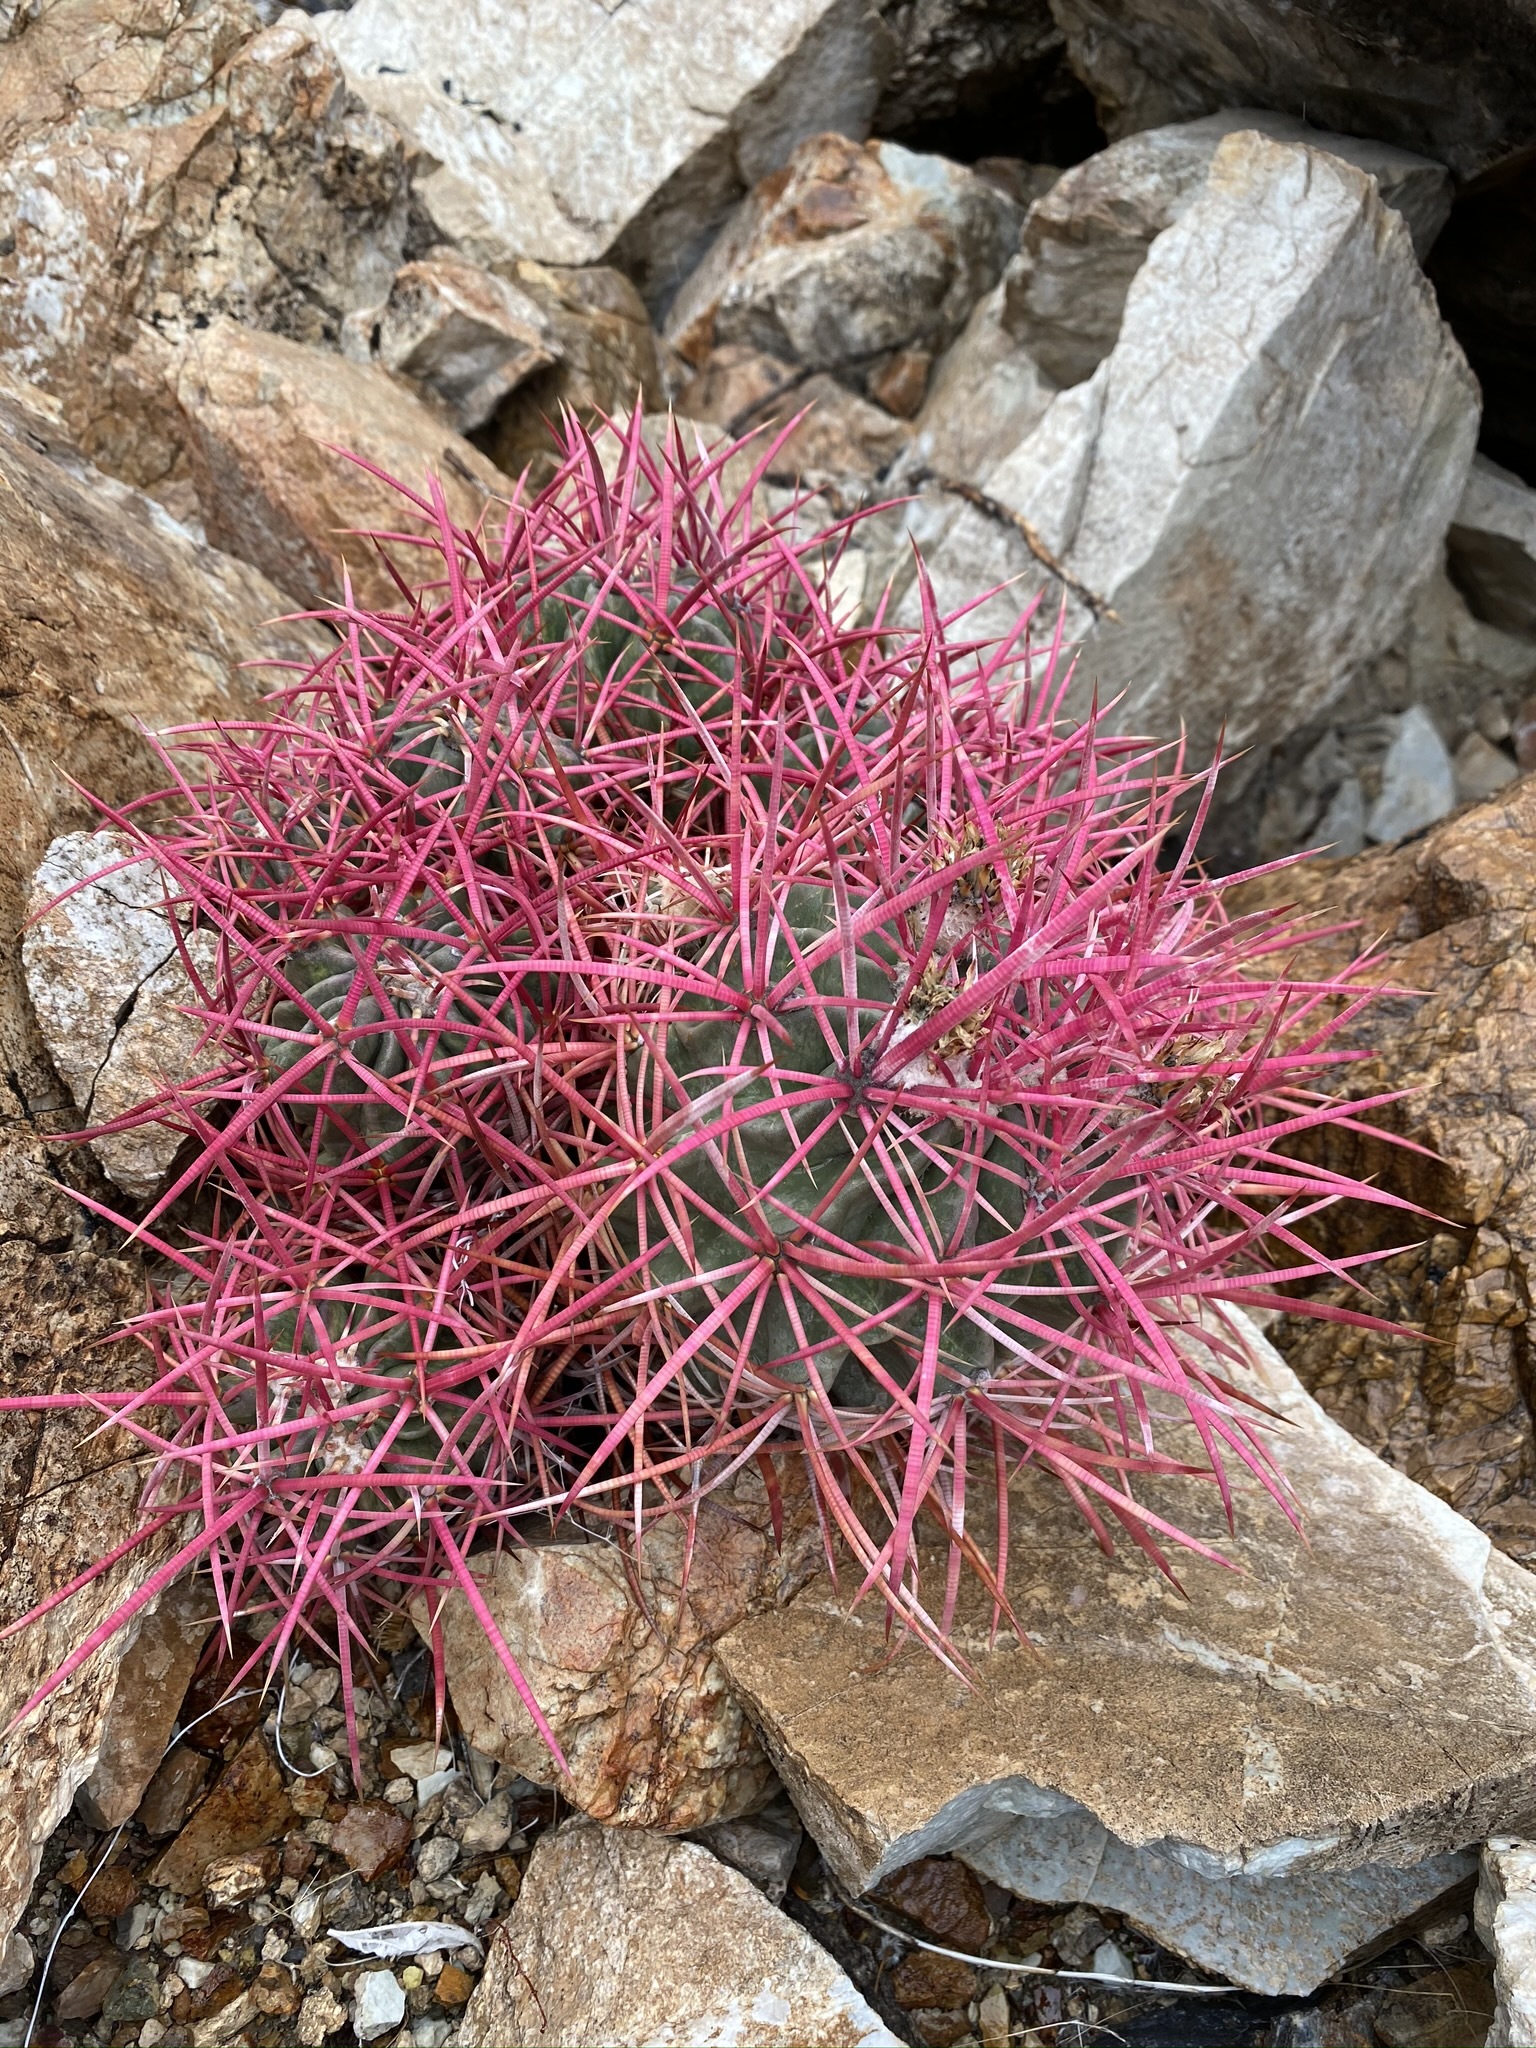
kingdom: Plantae
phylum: Tracheophyta
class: Magnoliopsida
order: Caryophyllales
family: Cactaceae
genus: Echinocactus
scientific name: Echinocactus polycephalus
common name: Cottontop cactus
